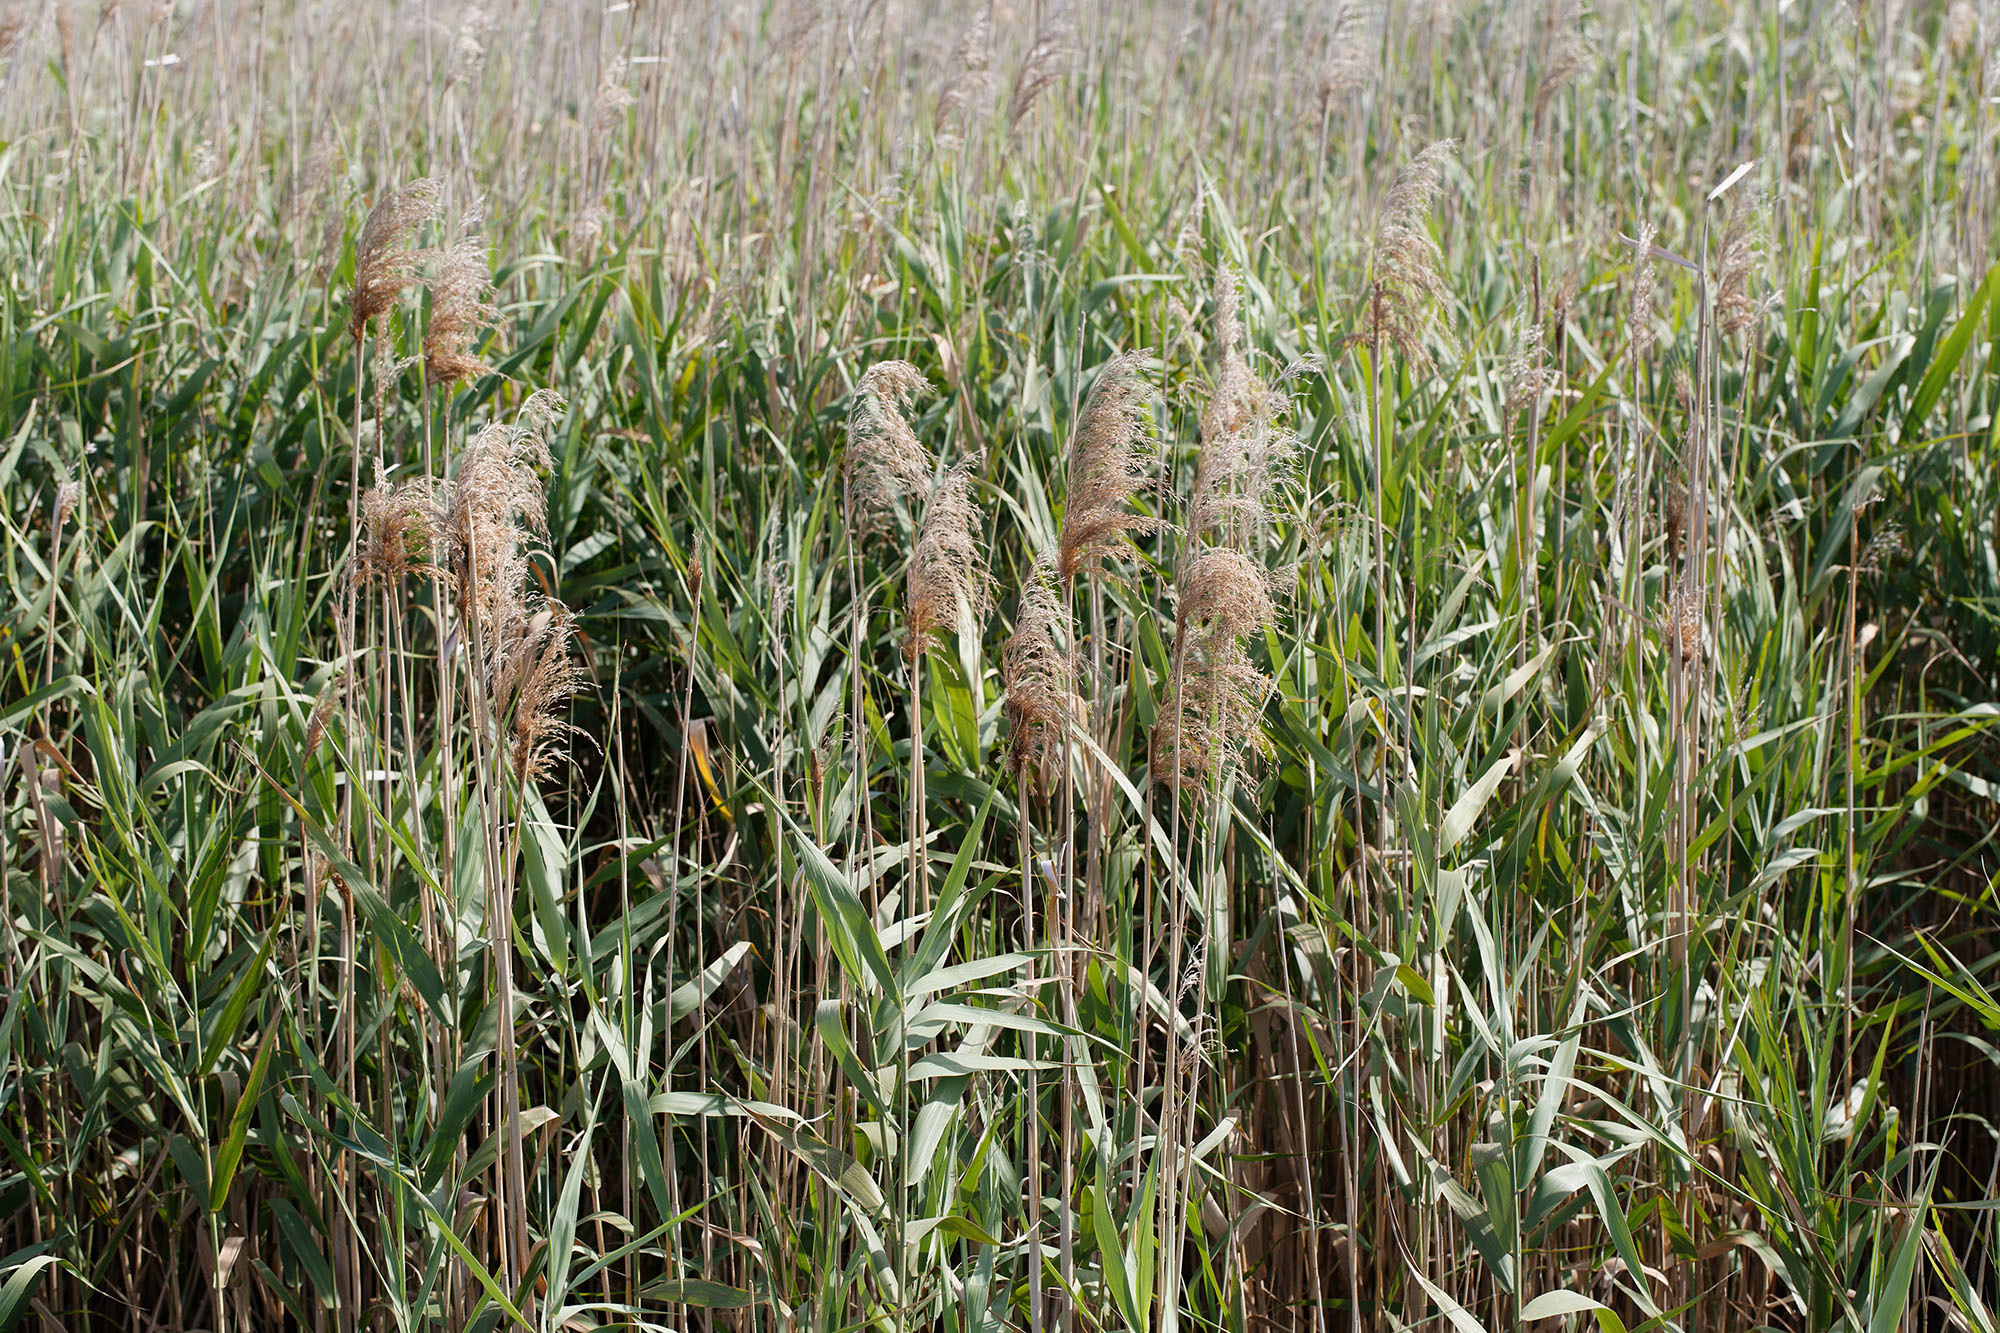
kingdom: Plantae
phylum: Tracheophyta
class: Liliopsida
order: Poales
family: Poaceae
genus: Phragmites
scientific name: Phragmites australis
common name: Common reed
